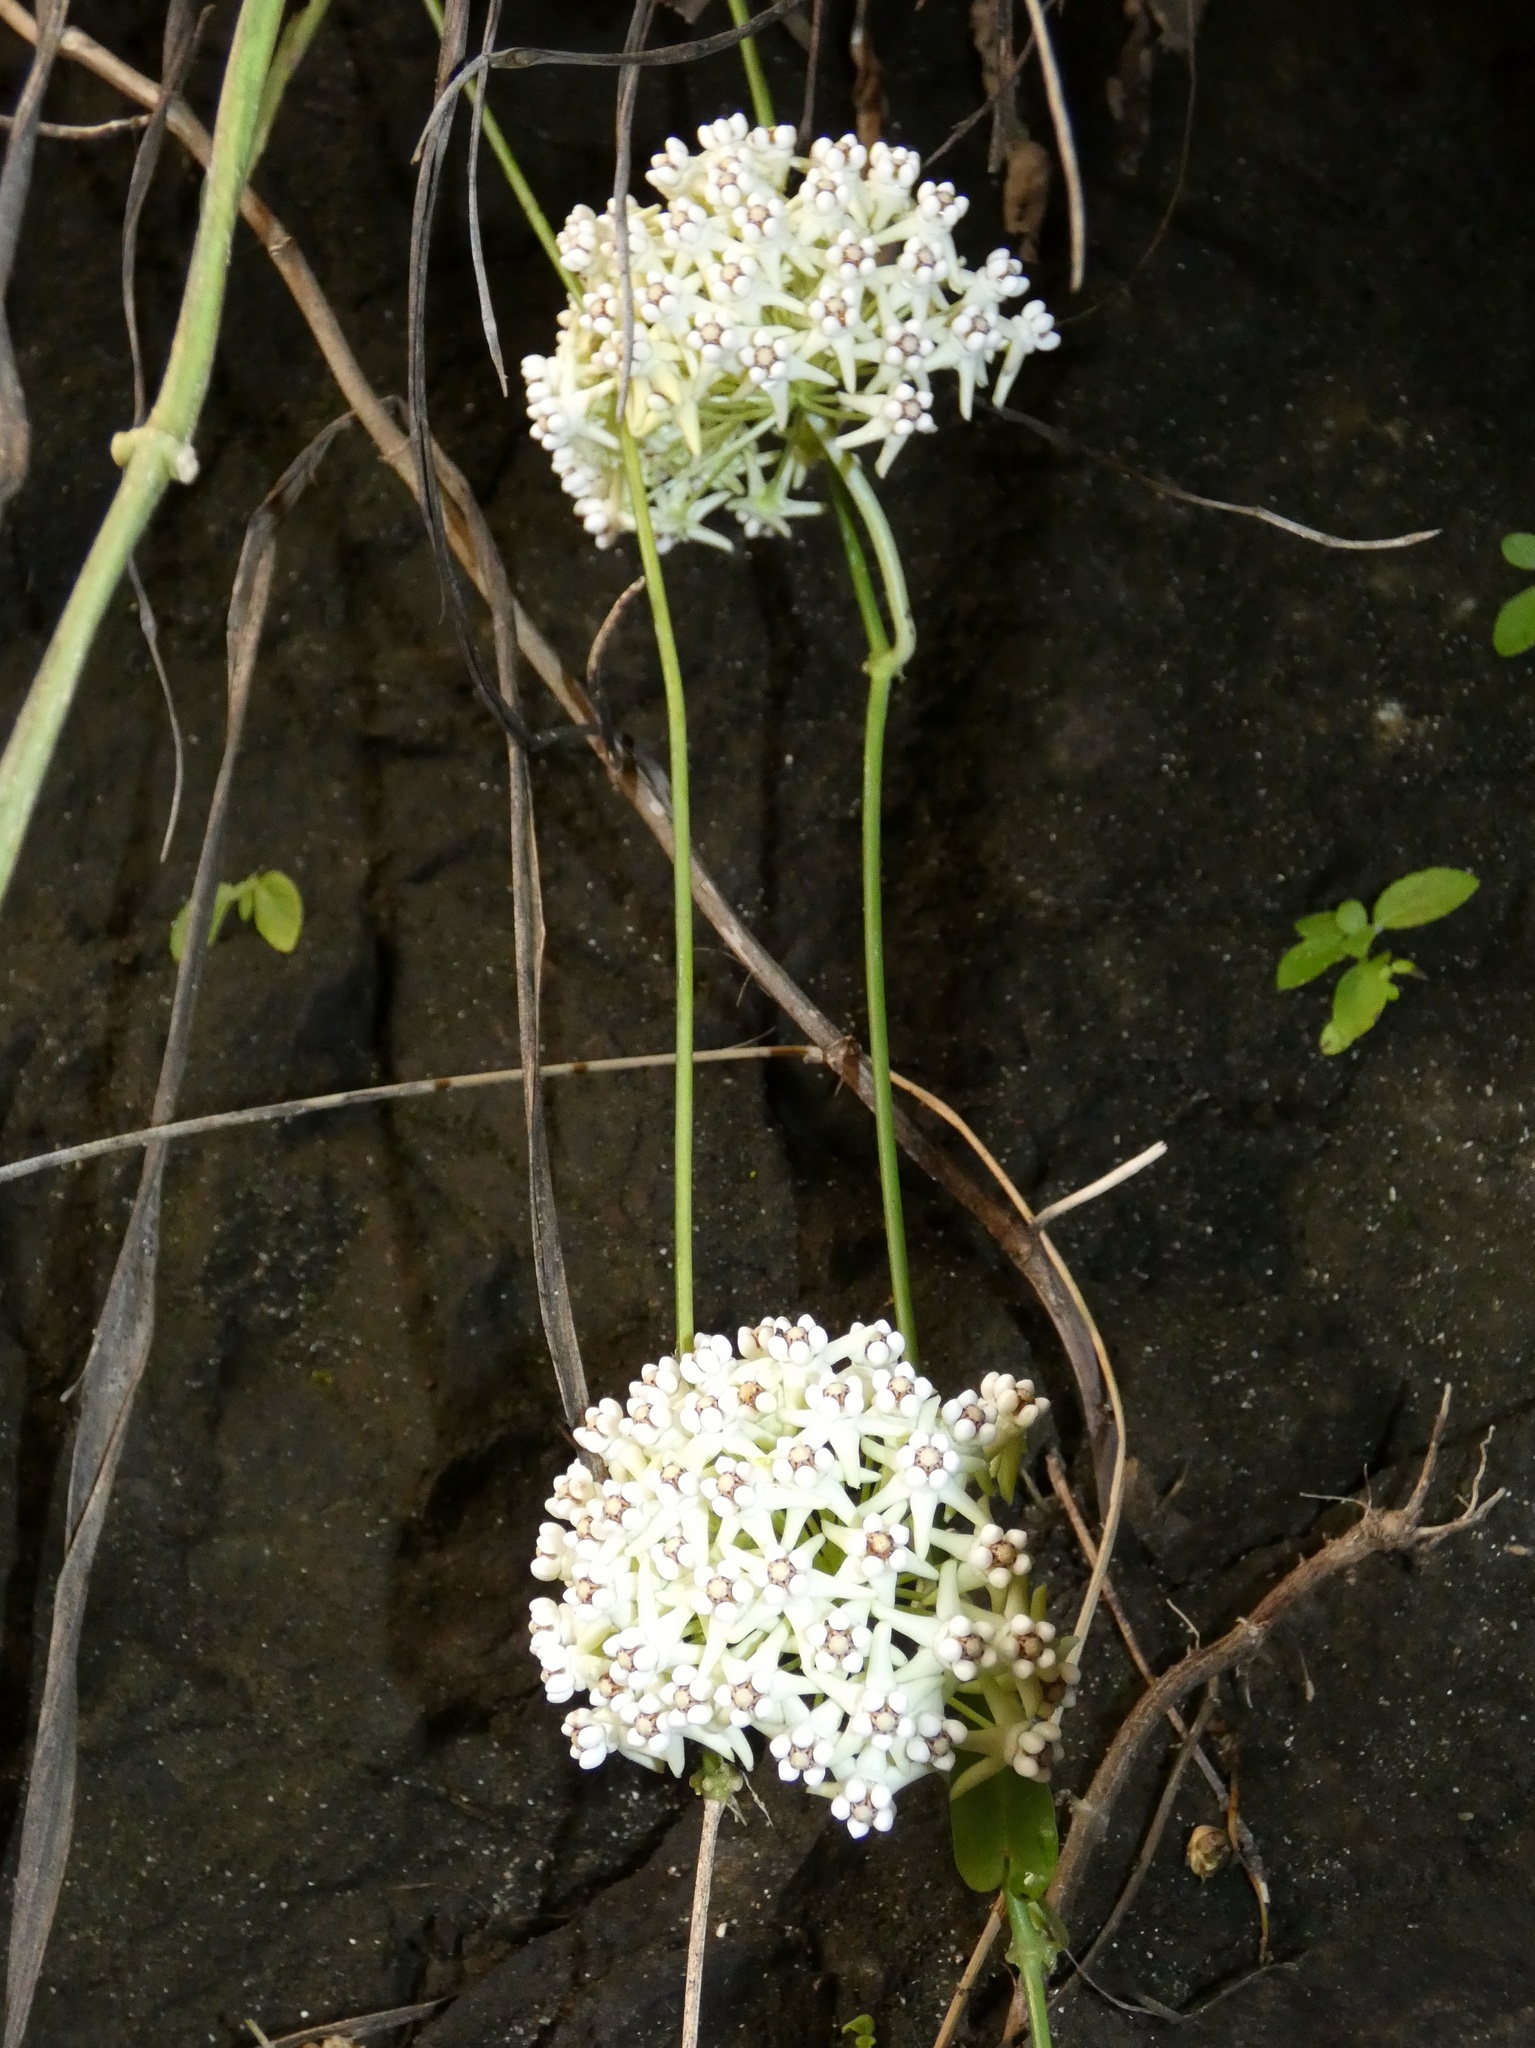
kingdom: Plantae
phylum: Tracheophyta
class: Magnoliopsida
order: Gentianales
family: Apocynaceae
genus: Funastrum
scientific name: Funastrum bilobum
